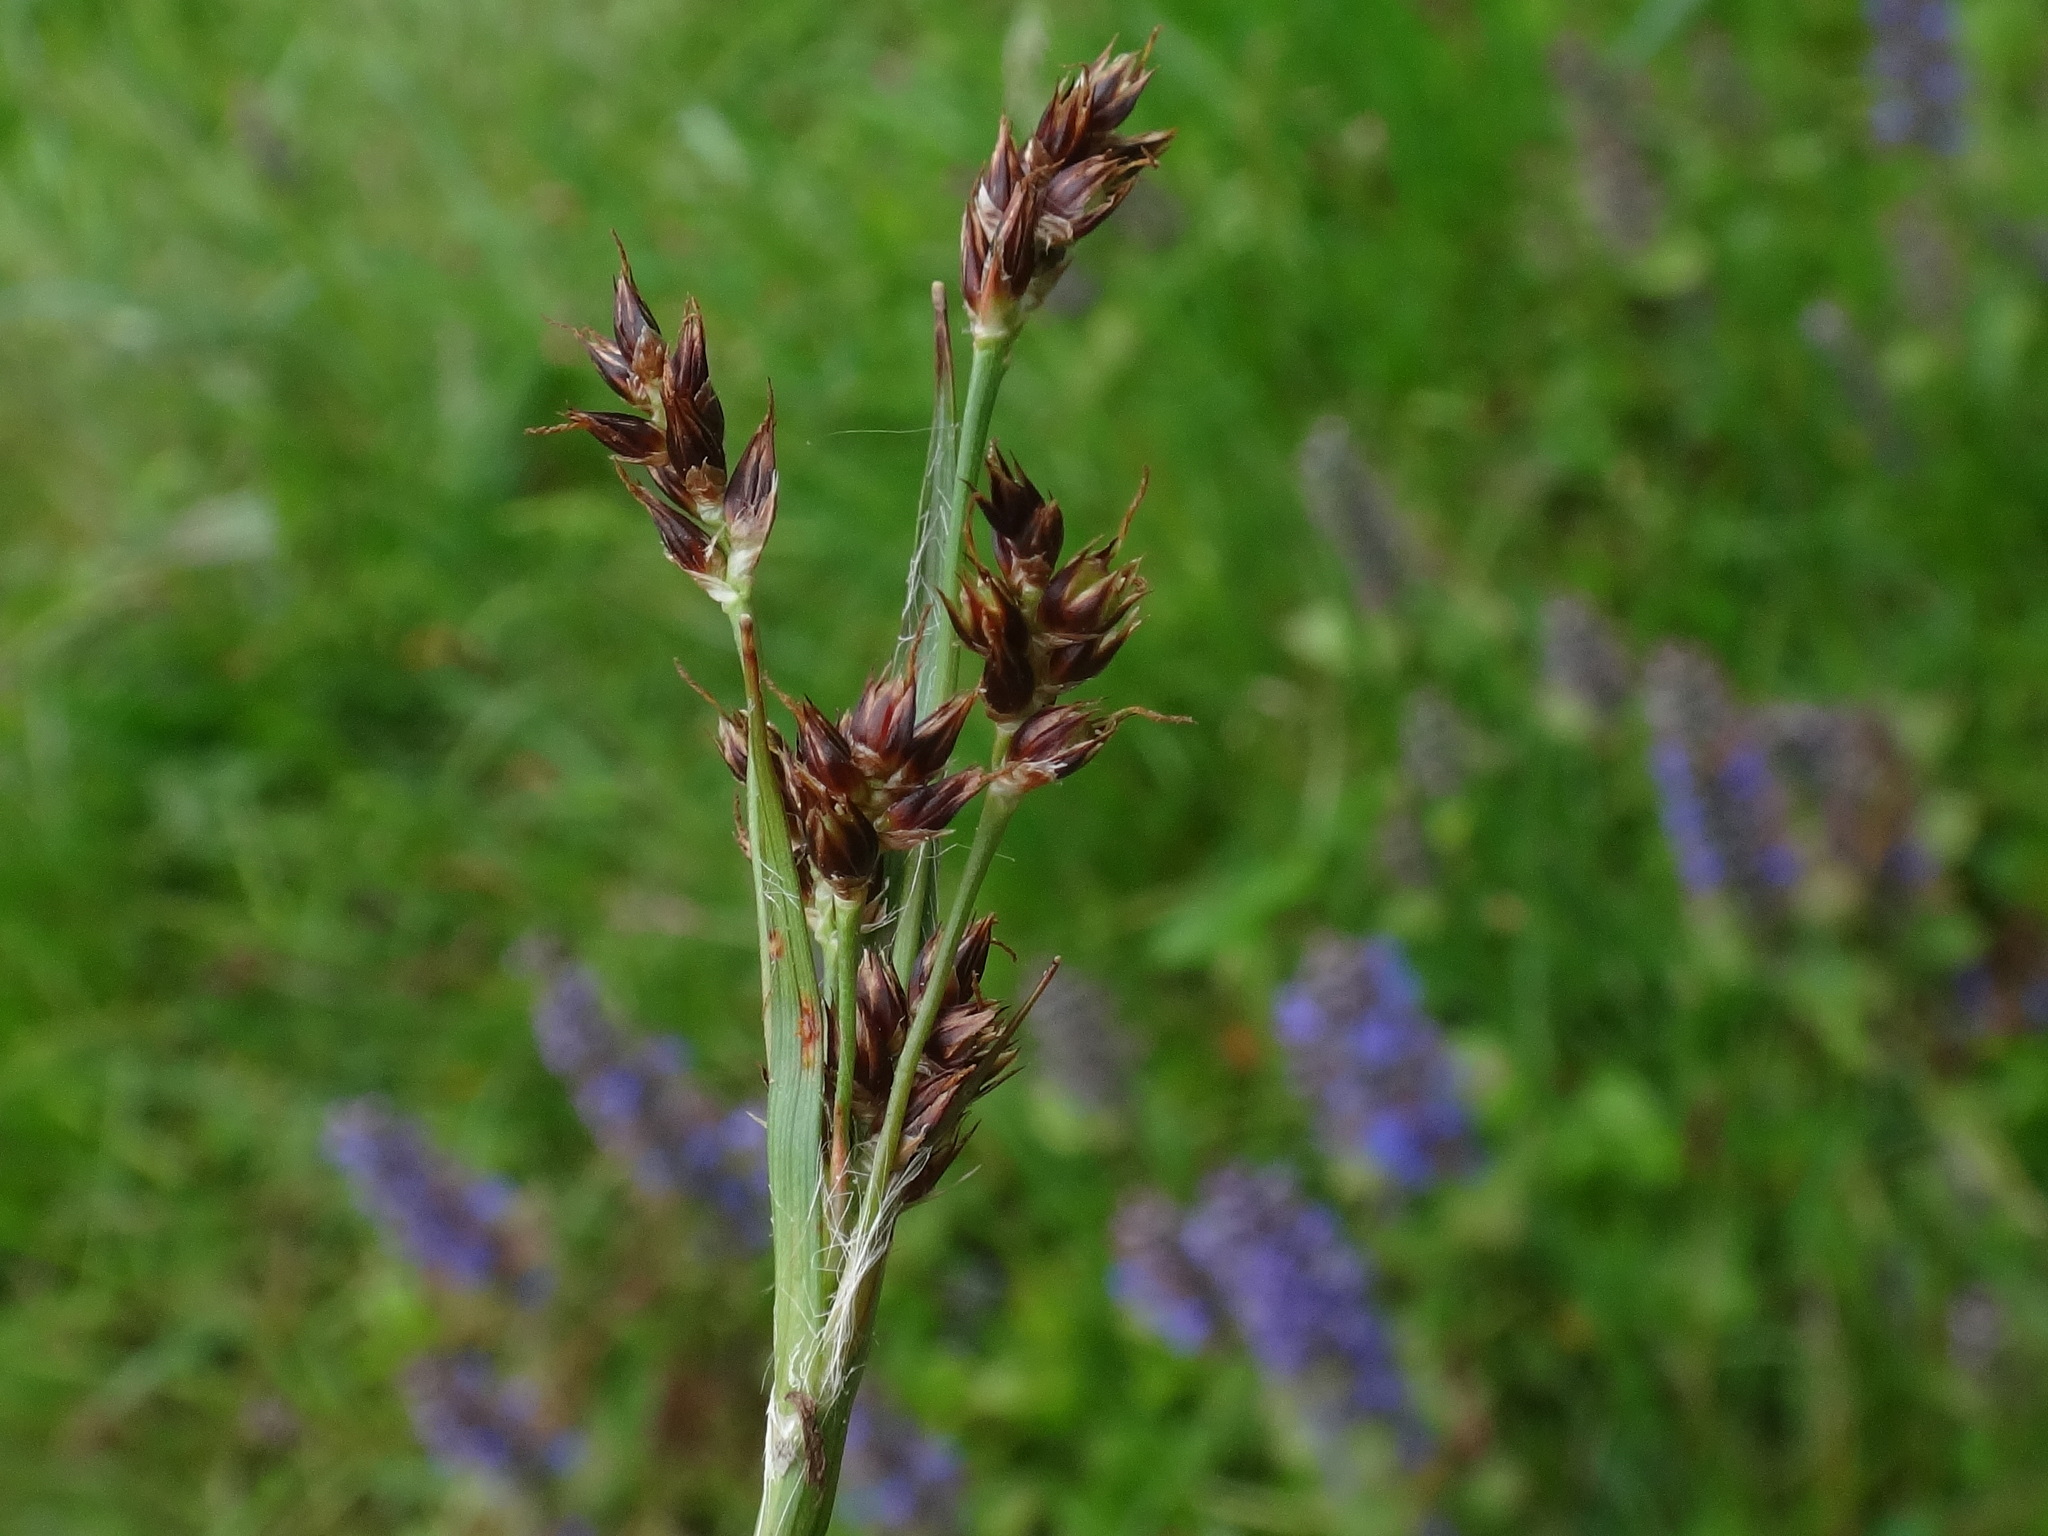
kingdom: Plantae
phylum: Tracheophyta
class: Liliopsida
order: Poales
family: Juncaceae
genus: Luzula
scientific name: Luzula campestris
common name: Field wood-rush
